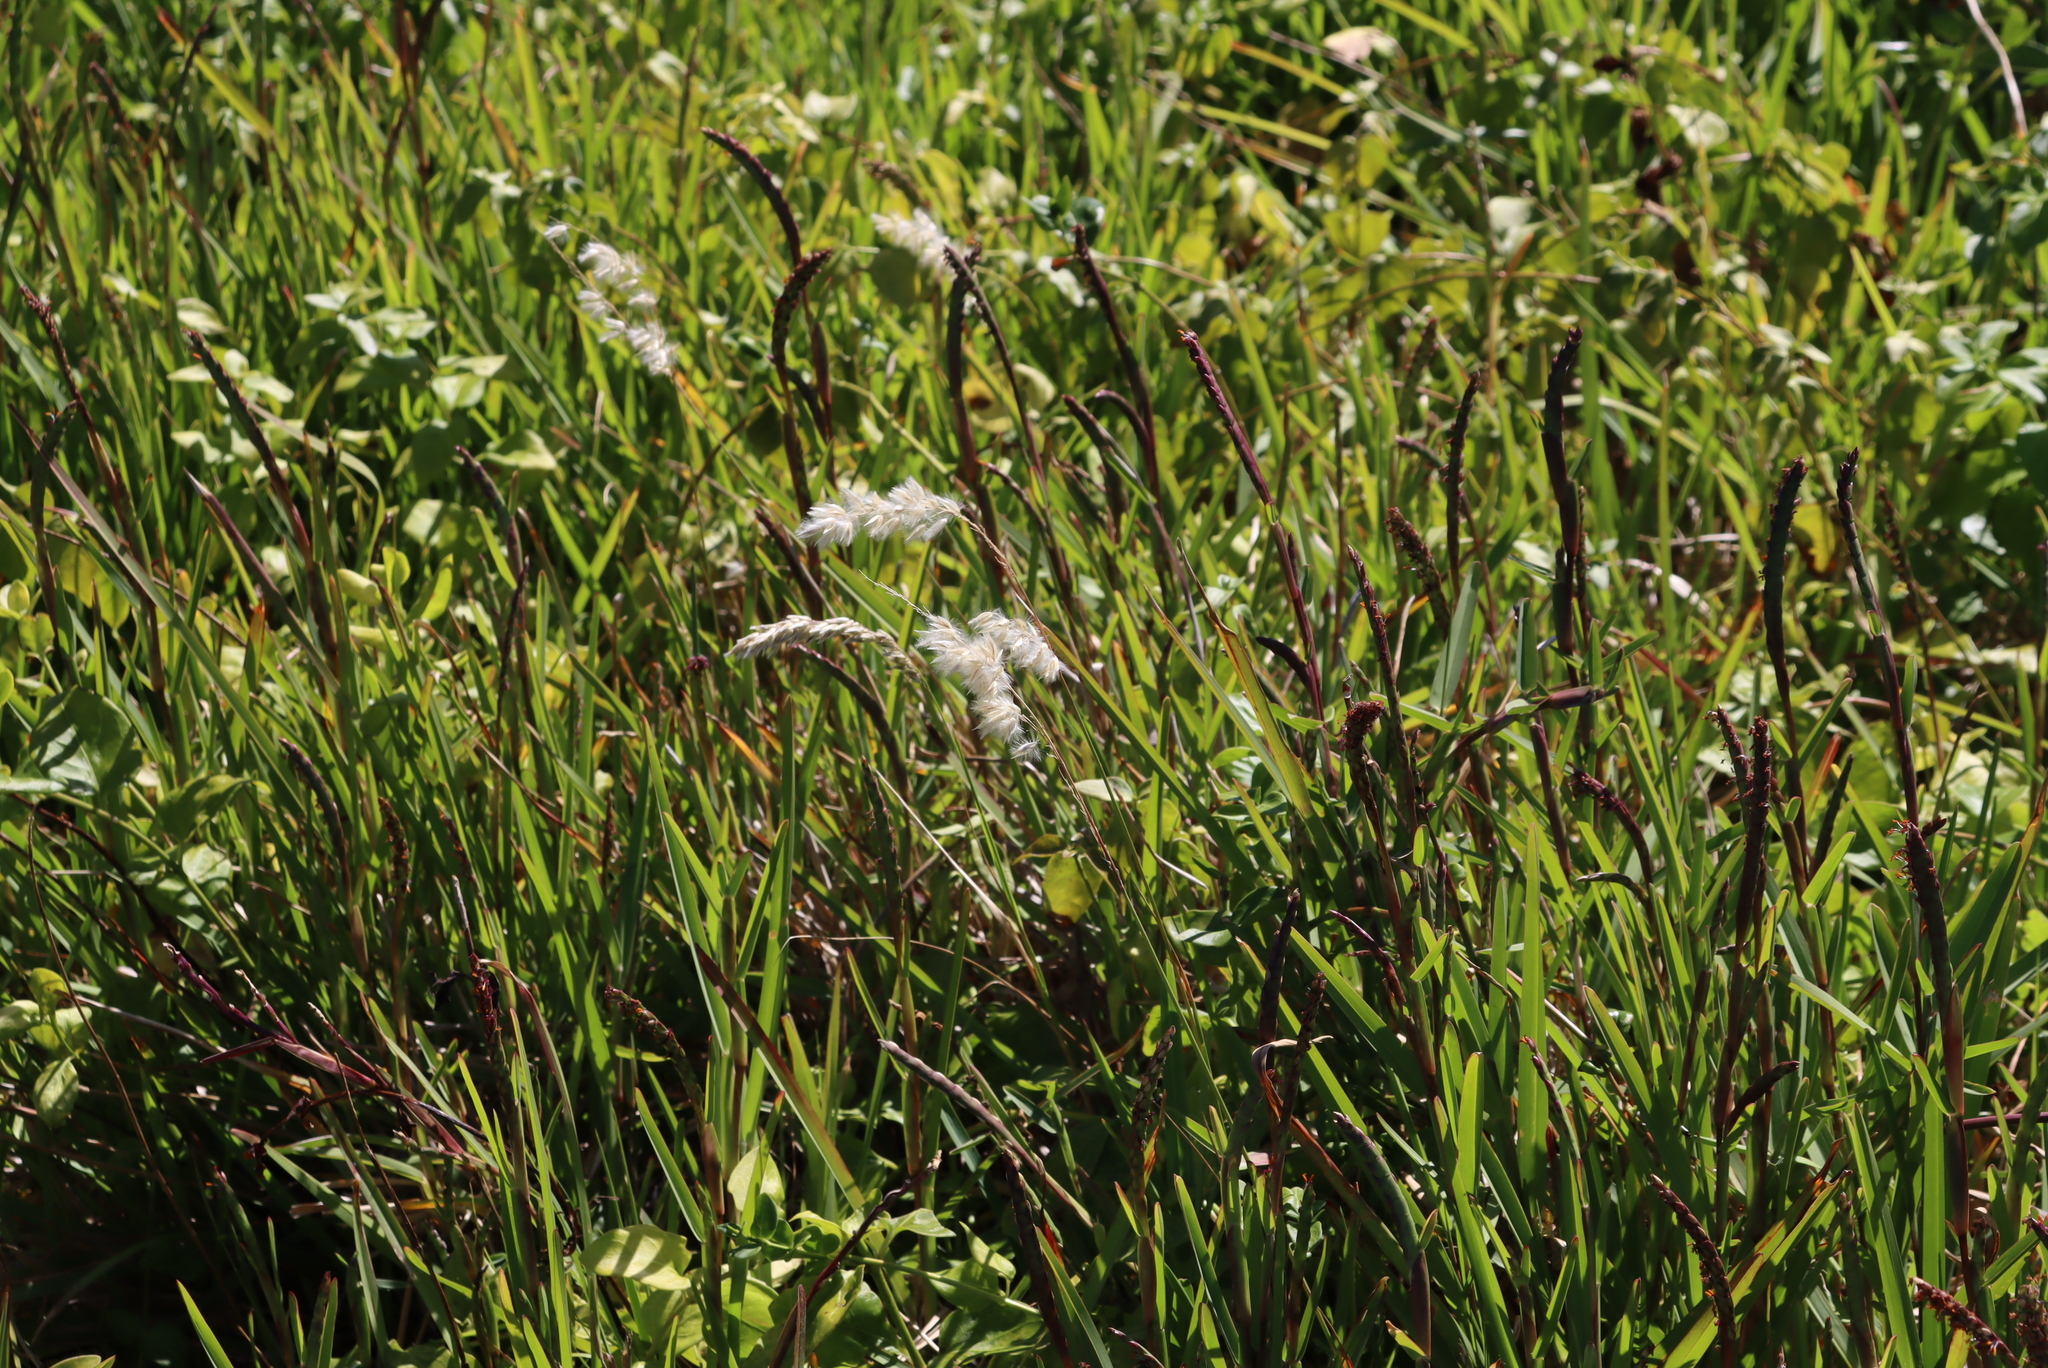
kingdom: Plantae
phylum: Tracheophyta
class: Liliopsida
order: Poales
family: Poaceae
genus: Imperata
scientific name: Imperata cylindrica
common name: Cogongrass
